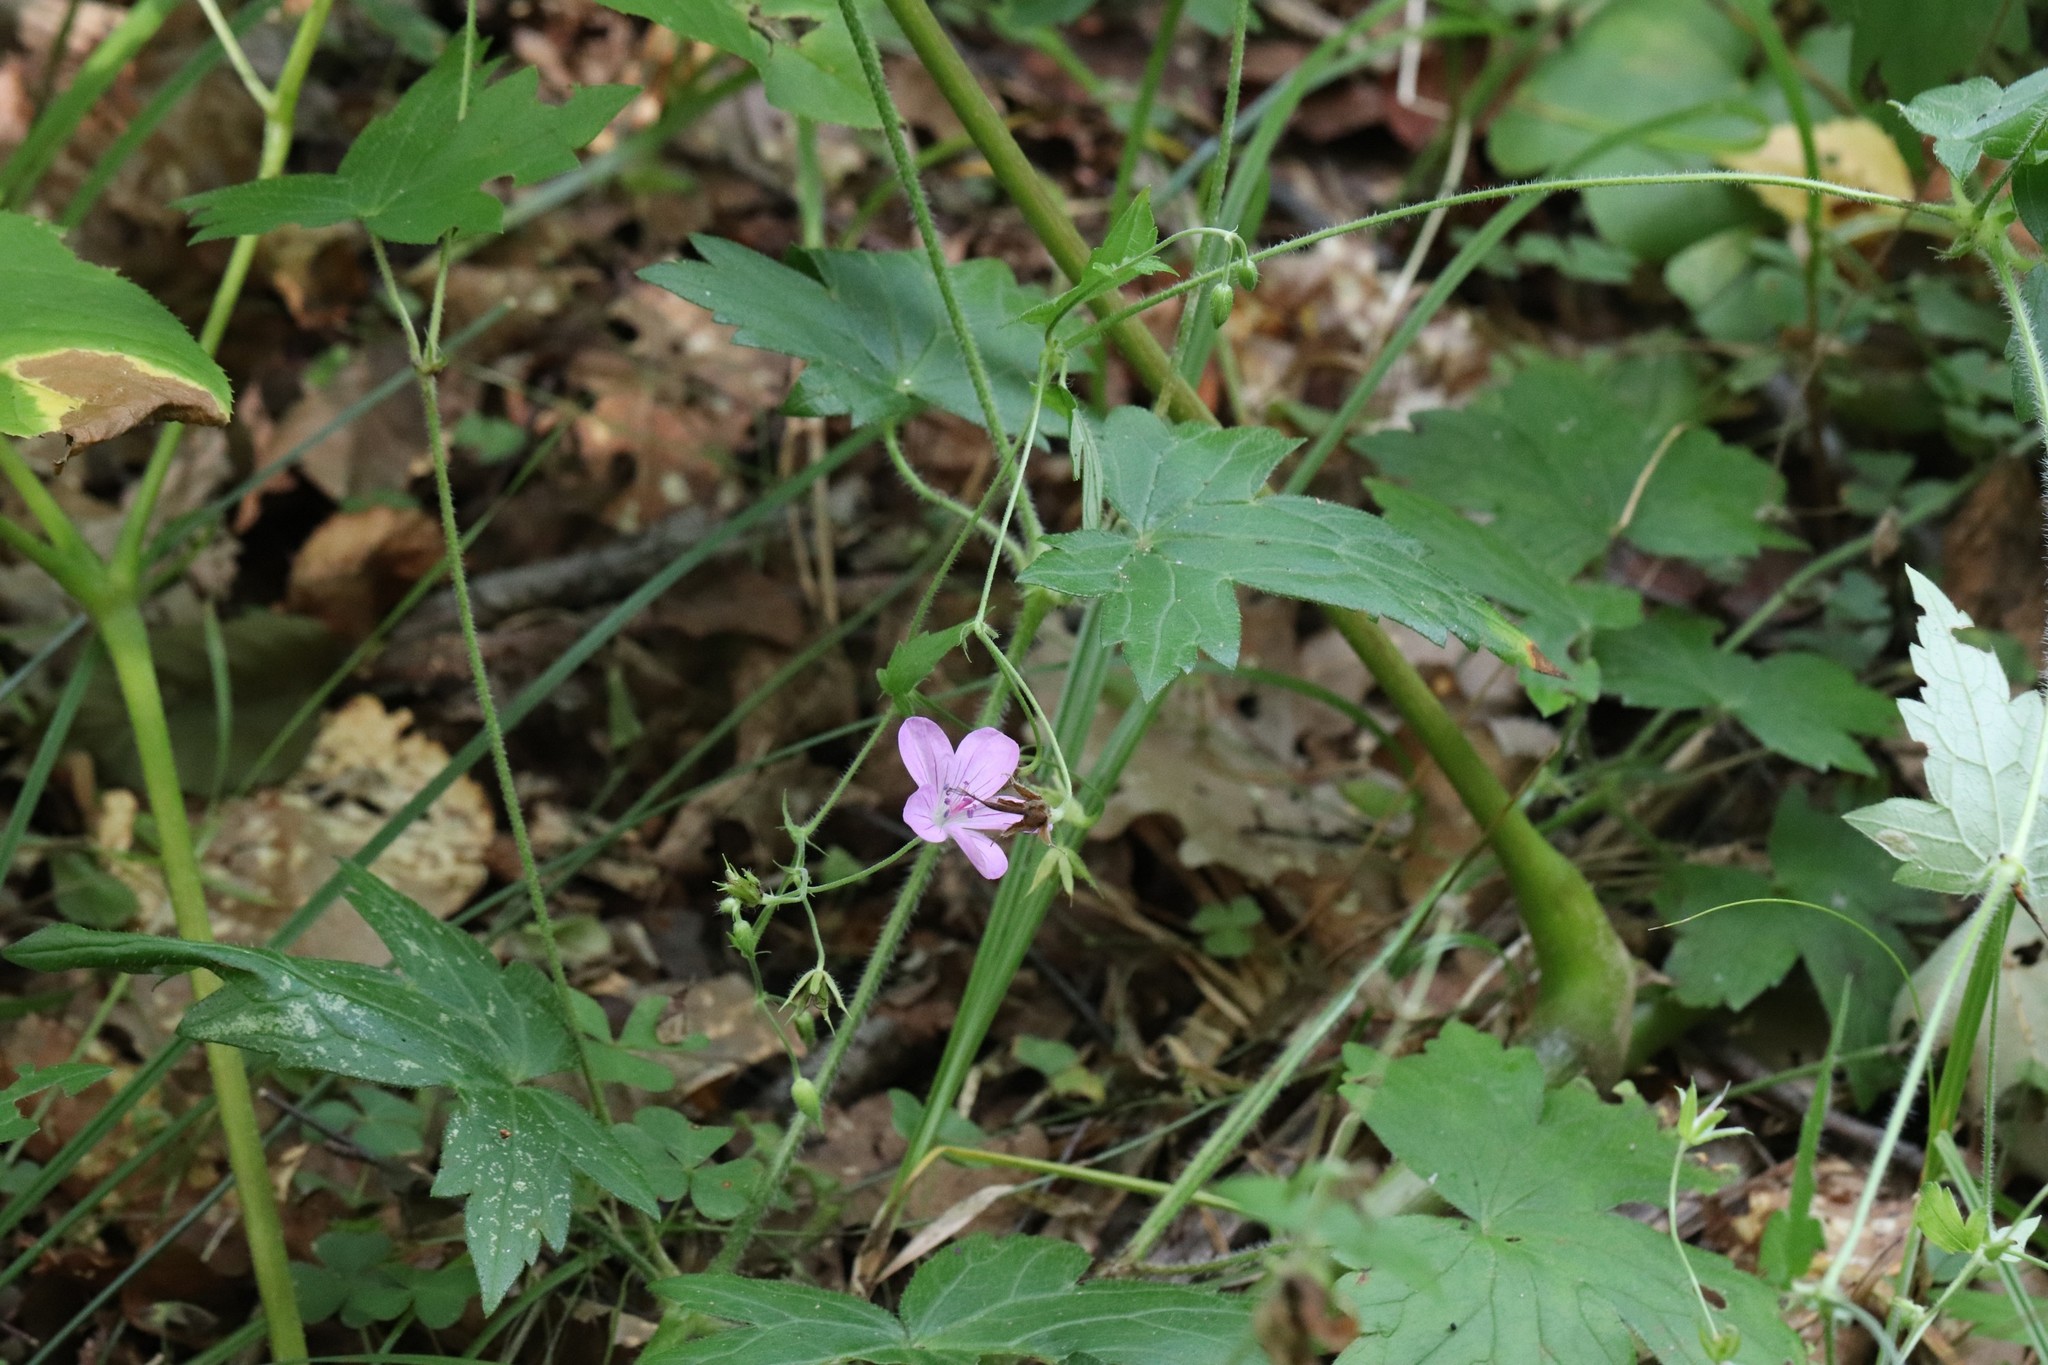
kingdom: Plantae
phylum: Tracheophyta
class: Magnoliopsida
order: Geraniales
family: Geraniaceae
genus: Geranium
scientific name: Geranium maximowiczii
